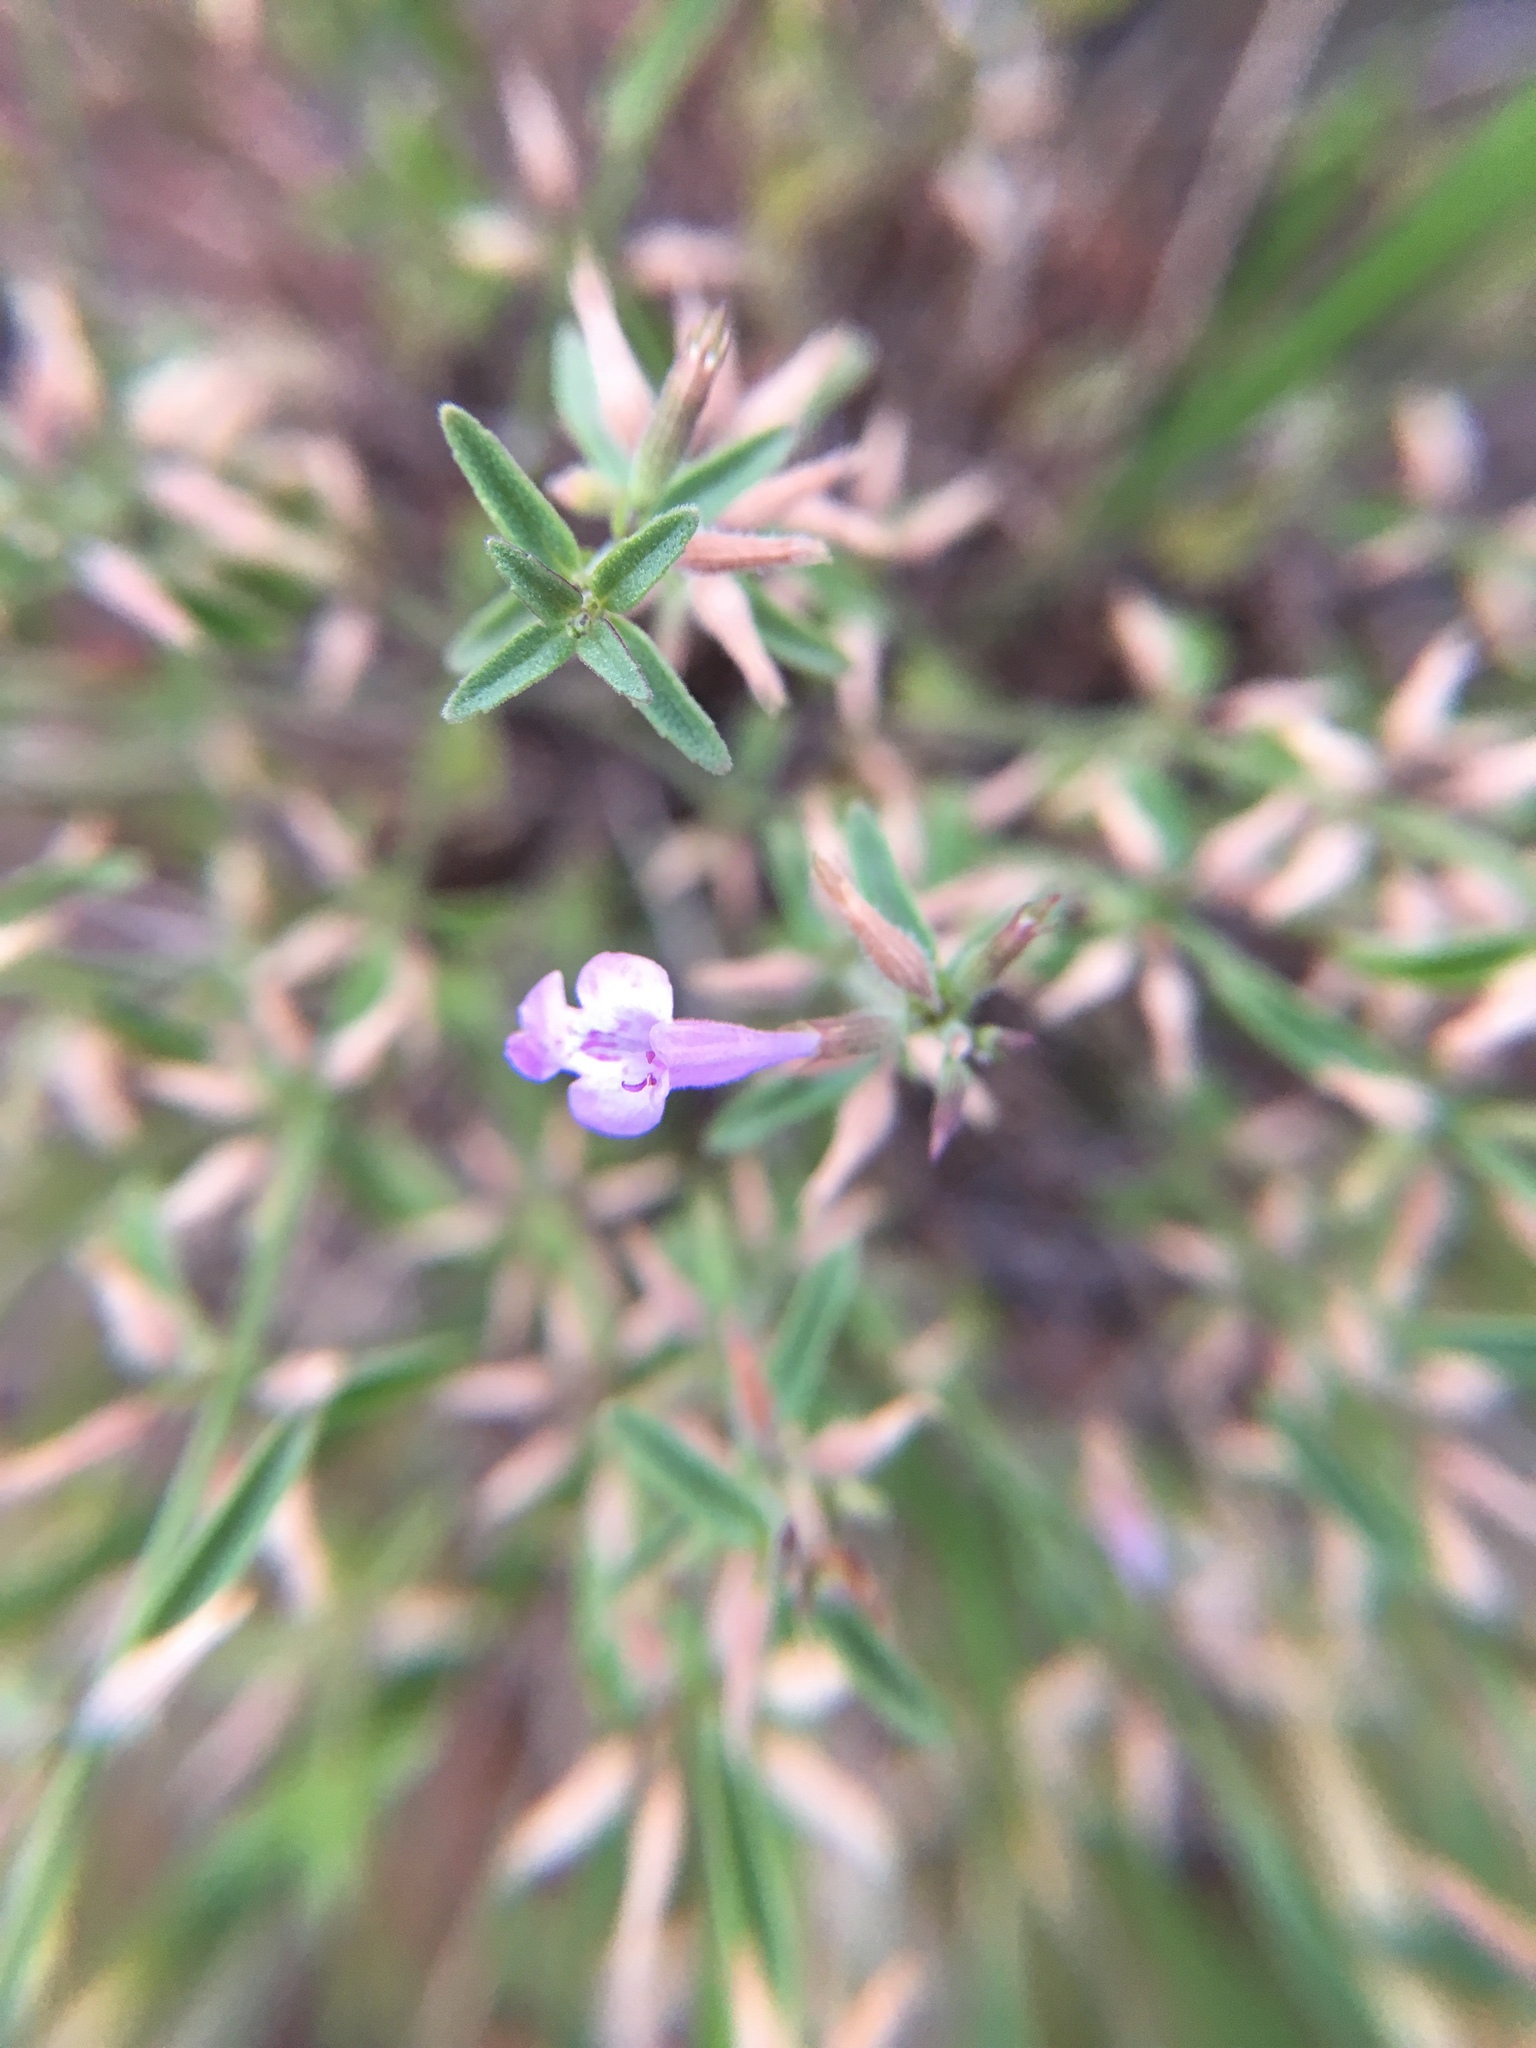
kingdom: Plantae
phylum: Tracheophyta
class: Magnoliopsida
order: Lamiales
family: Lamiaceae
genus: Hedeoma
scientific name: Hedeoma drummondii
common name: New mexico pennyroyal
